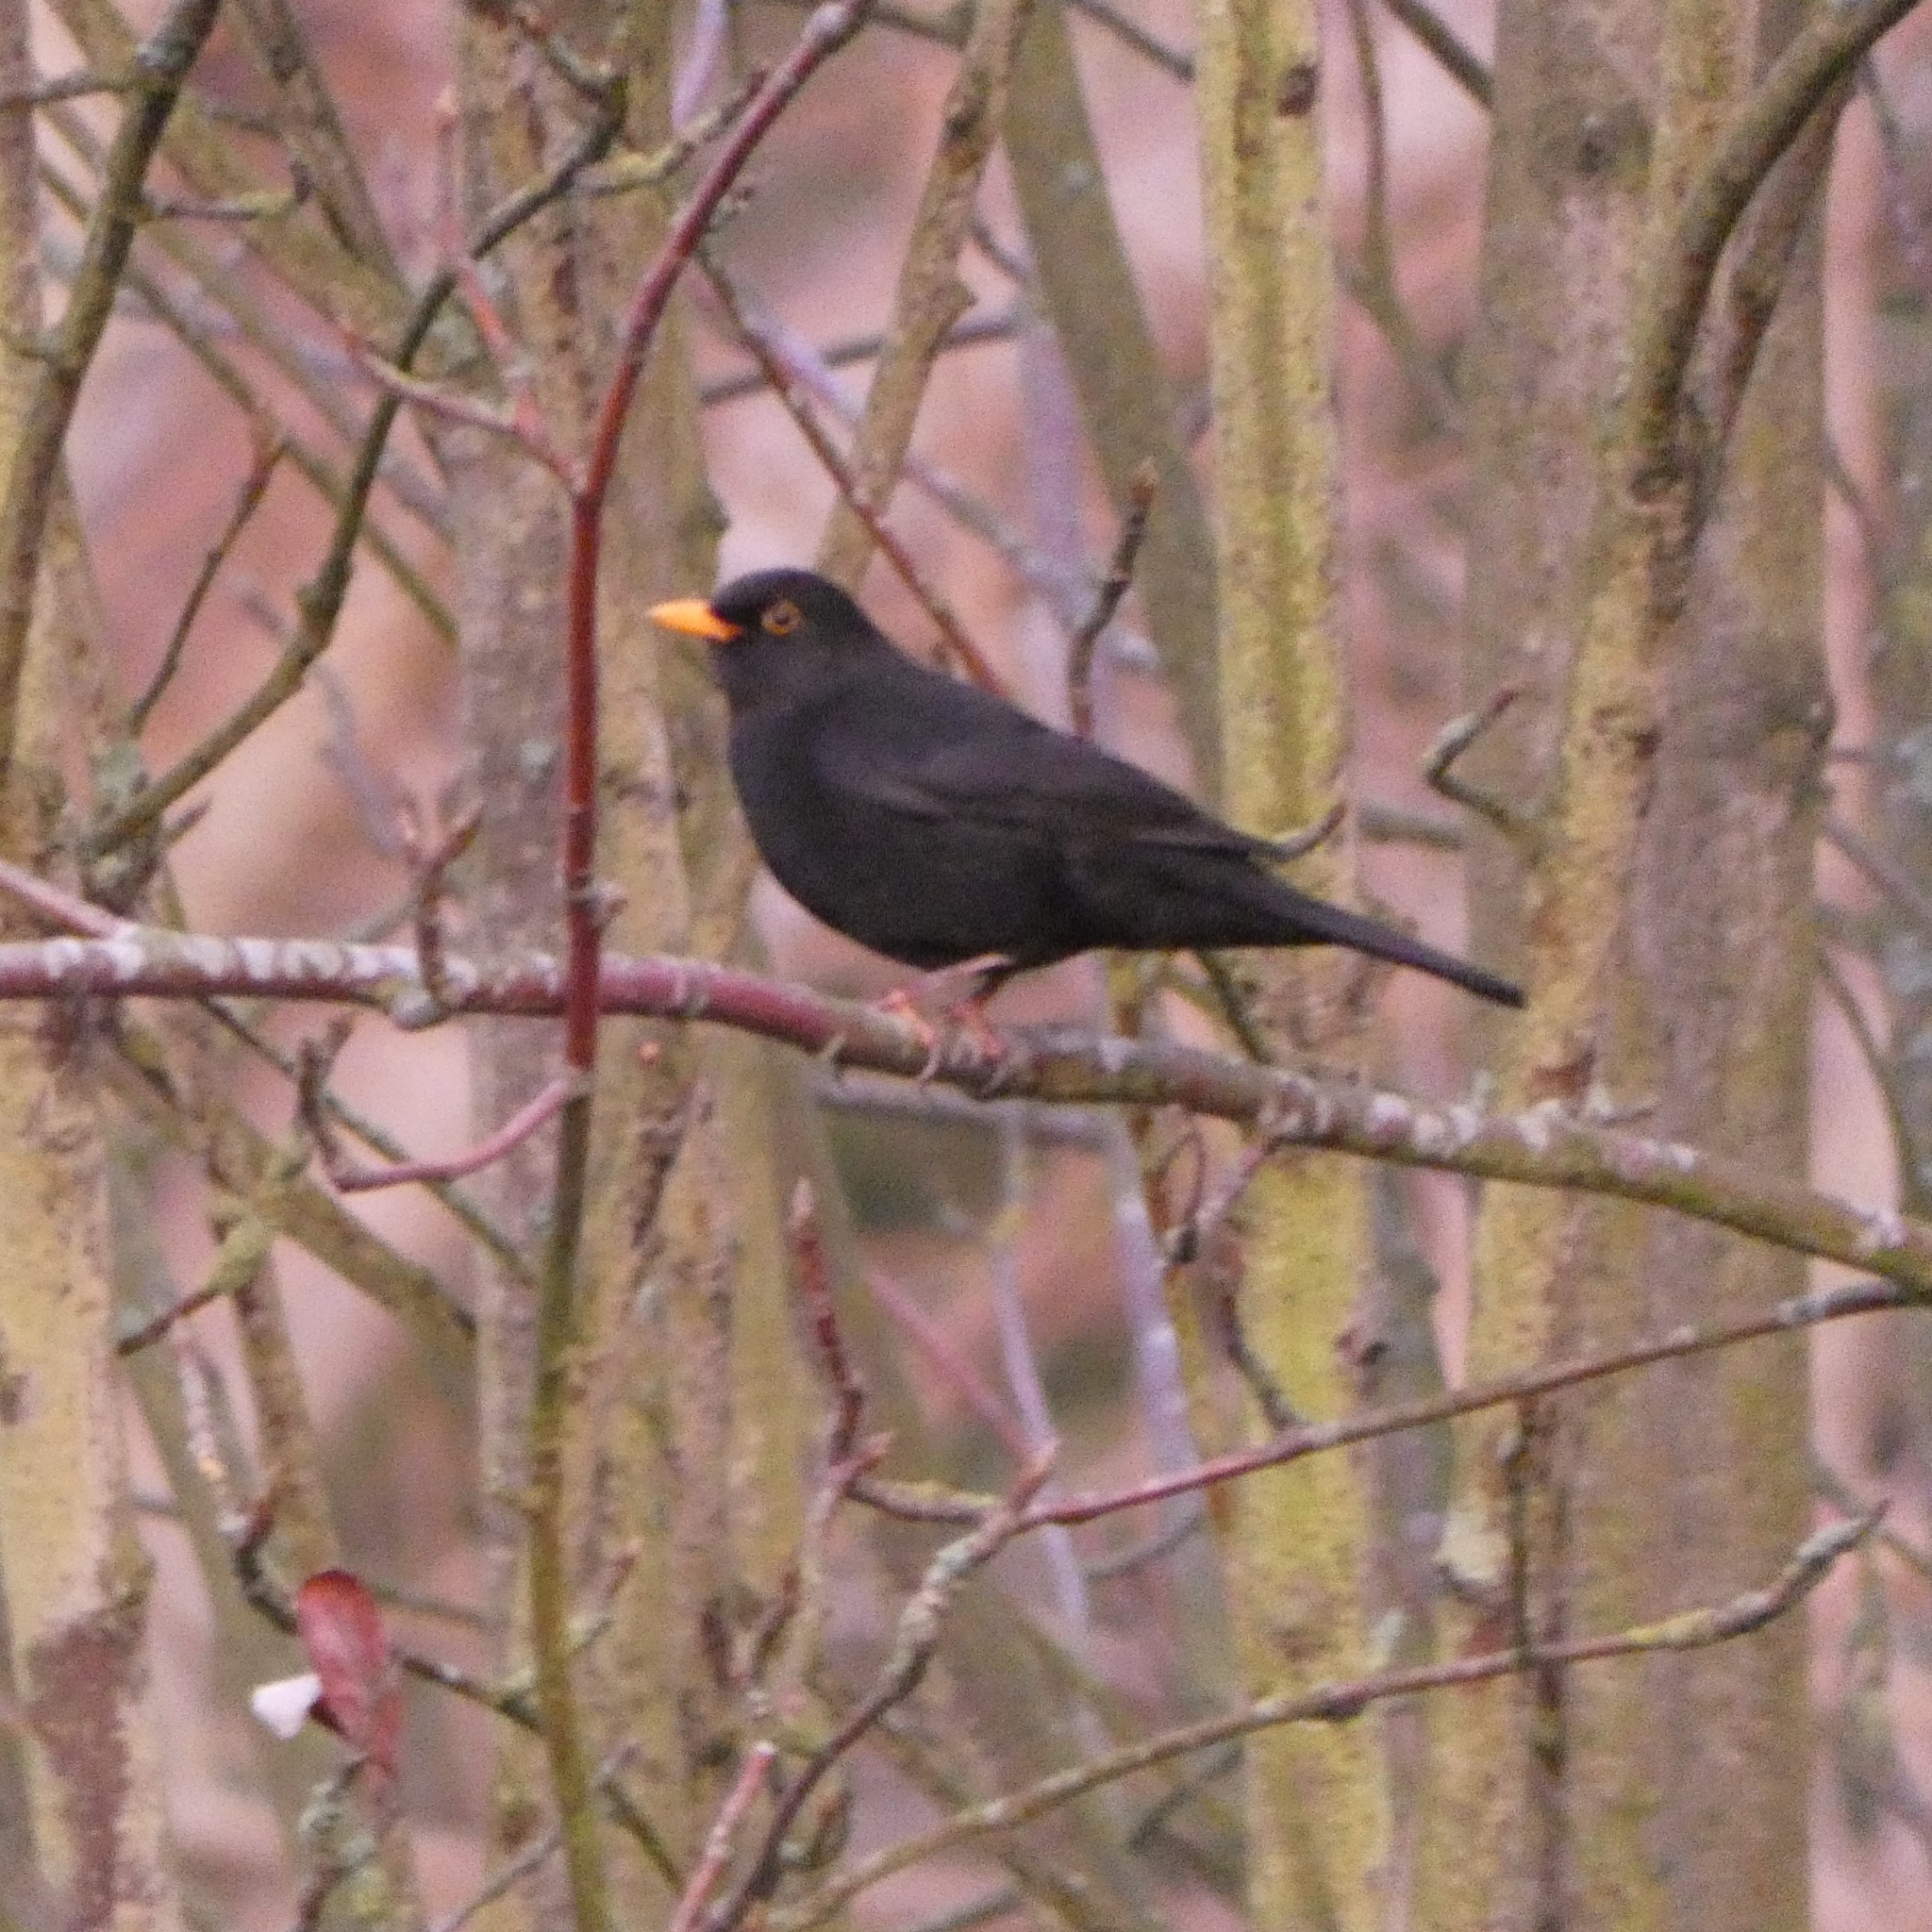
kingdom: Animalia
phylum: Chordata
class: Aves
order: Passeriformes
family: Turdidae
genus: Turdus
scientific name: Turdus merula
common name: Common blackbird
